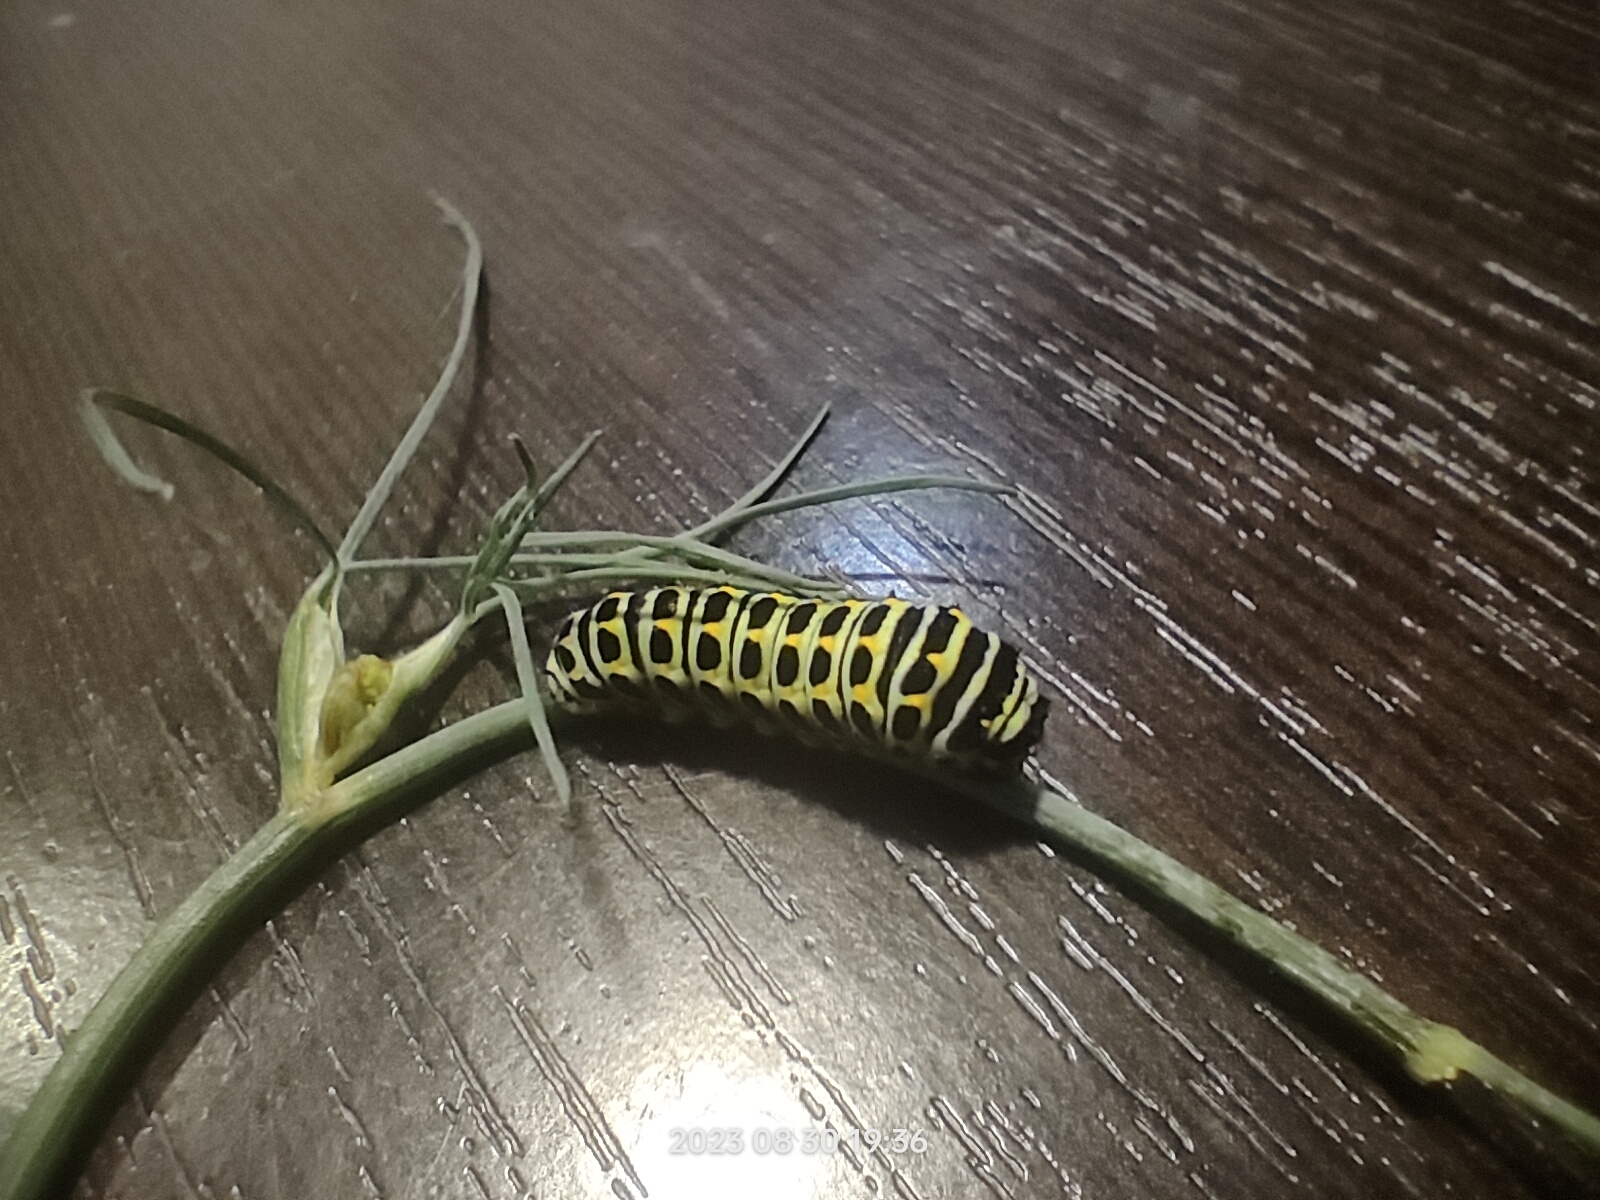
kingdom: Animalia
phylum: Arthropoda
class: Insecta
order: Lepidoptera
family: Papilionidae
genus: Papilio
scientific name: Papilio machaon
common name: Swallowtail
